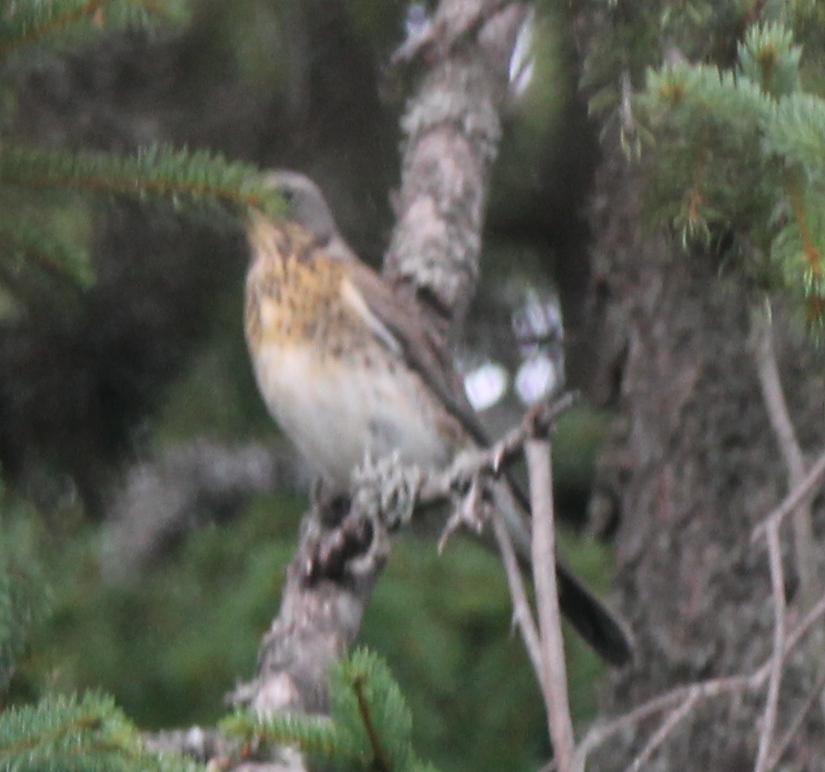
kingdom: Animalia
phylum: Chordata
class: Aves
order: Passeriformes
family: Turdidae
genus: Turdus
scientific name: Turdus pilaris
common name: Fieldfare
